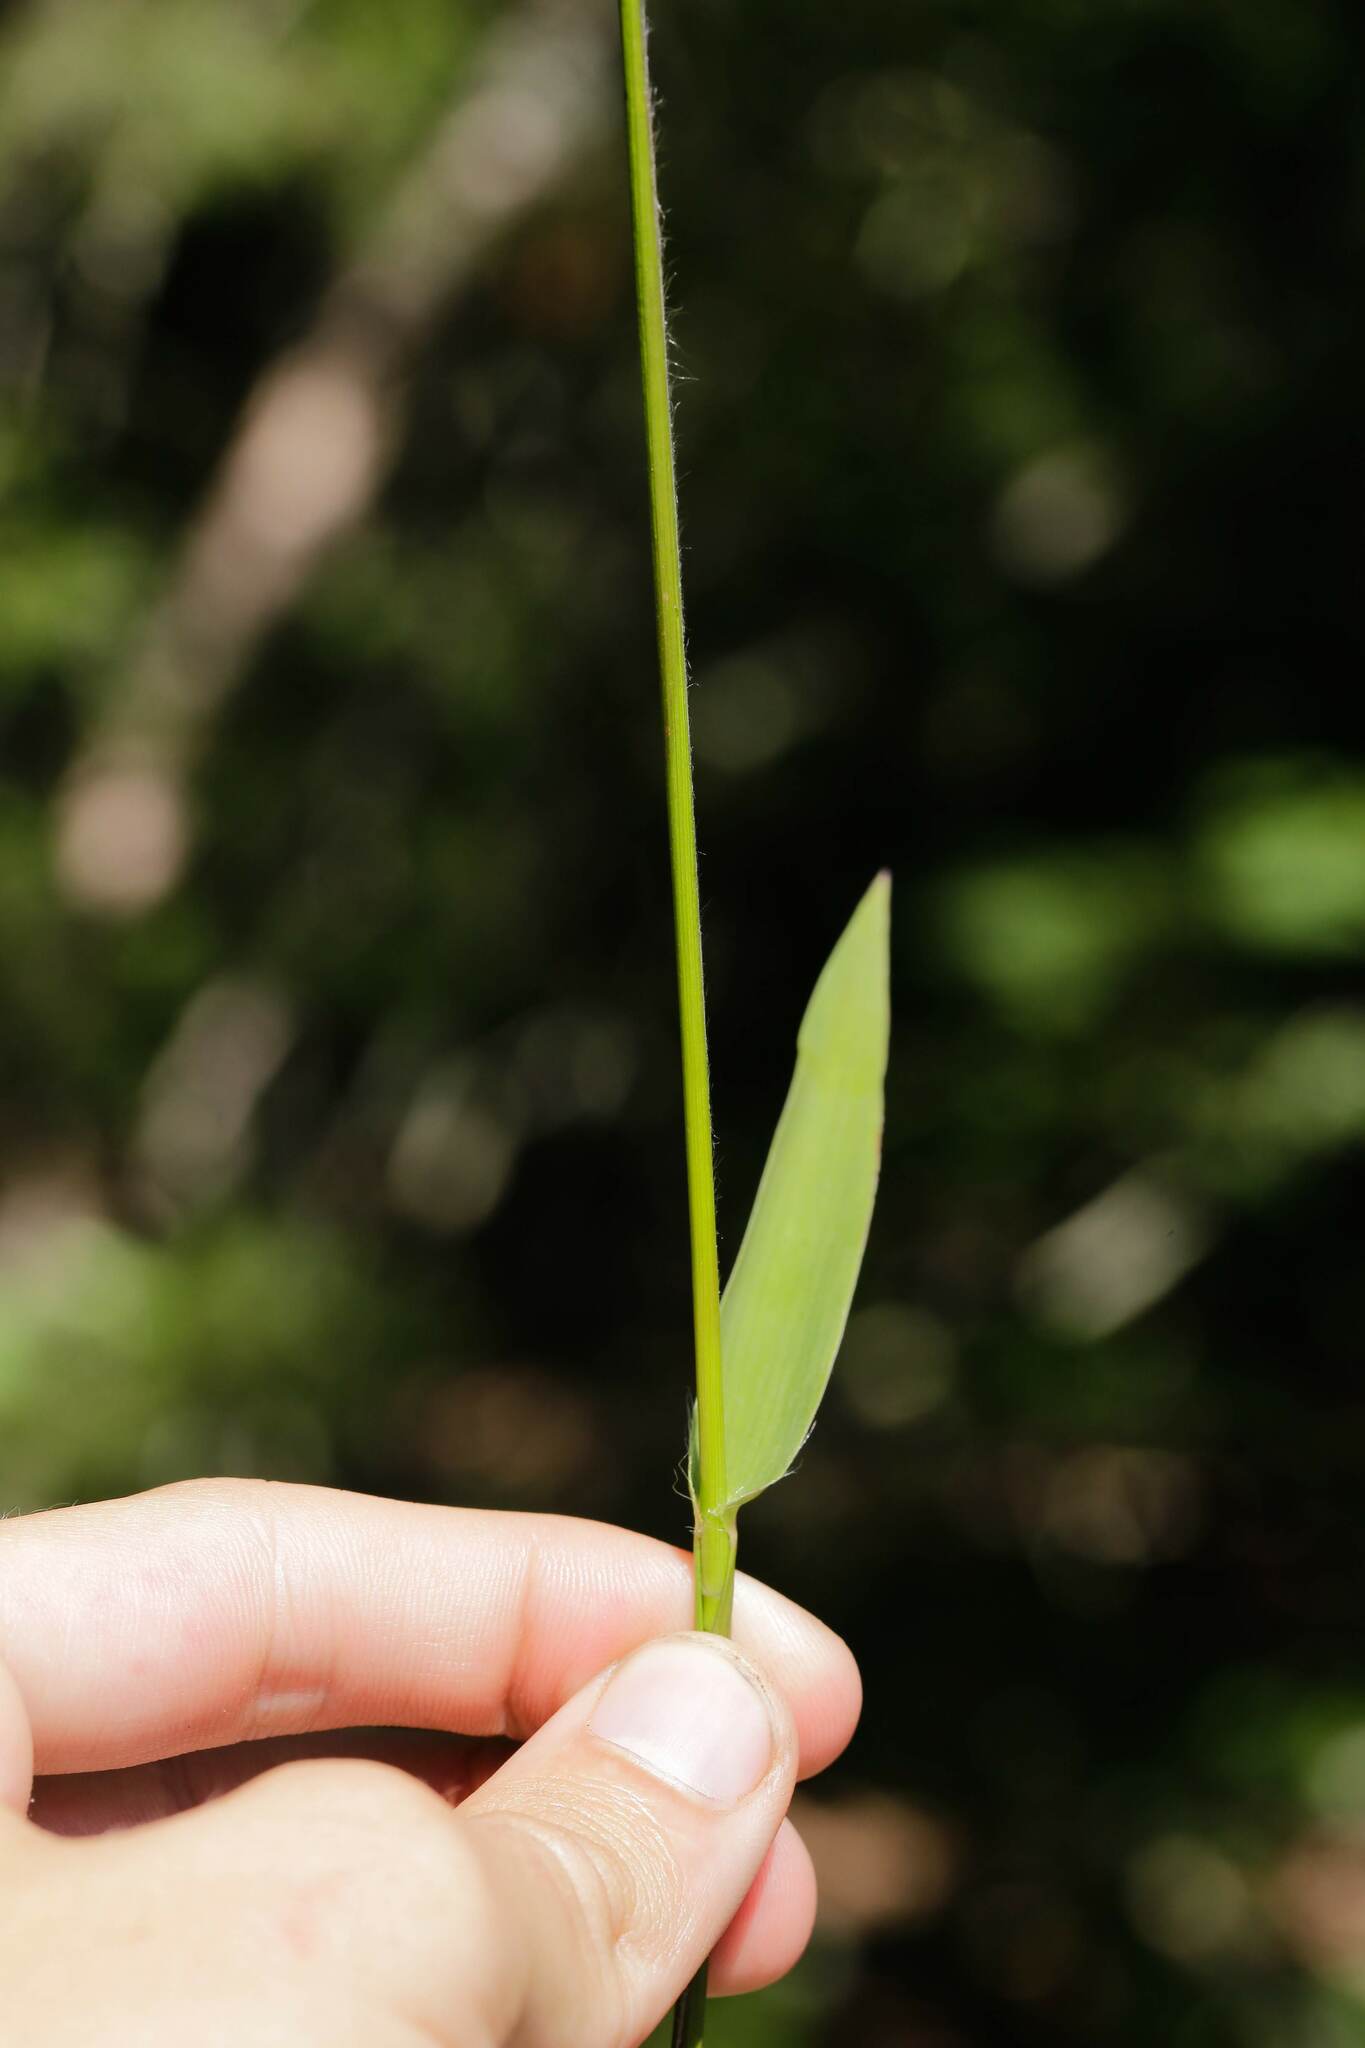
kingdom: Plantae
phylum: Tracheophyta
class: Liliopsida
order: Poales
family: Poaceae
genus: Dichanthelium
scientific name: Dichanthelium sphaerocarpon
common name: Round-fruited panicgrass
